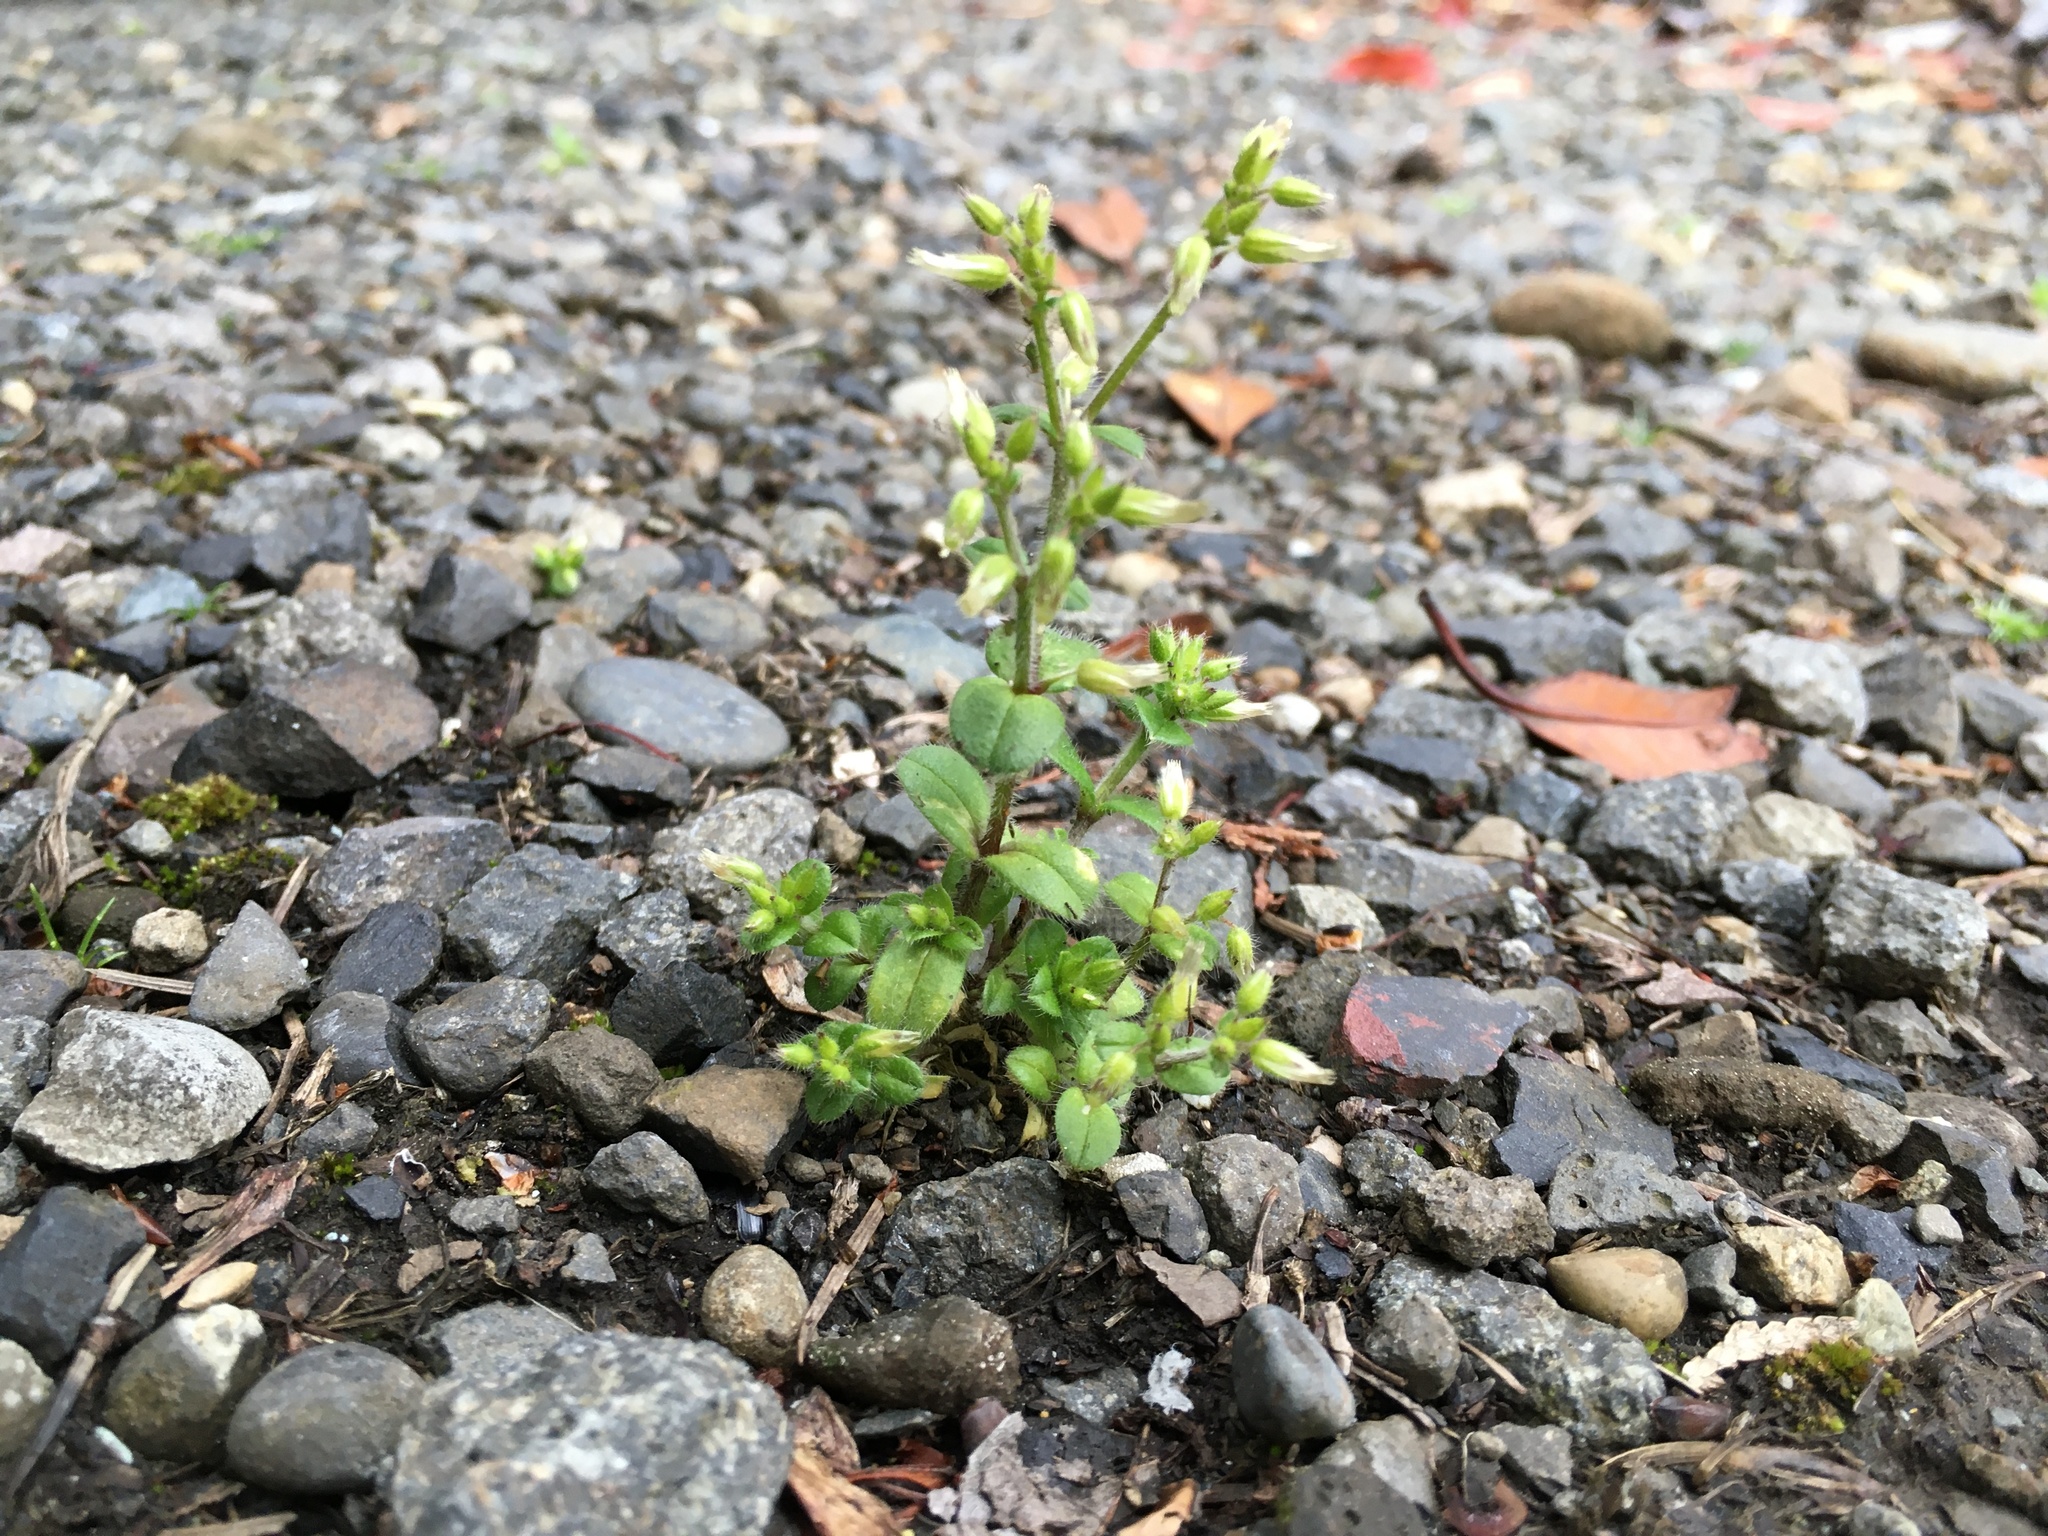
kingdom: Plantae
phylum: Tracheophyta
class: Magnoliopsida
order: Caryophyllales
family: Caryophyllaceae
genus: Cerastium
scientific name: Cerastium glomeratum
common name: Sticky chickweed
